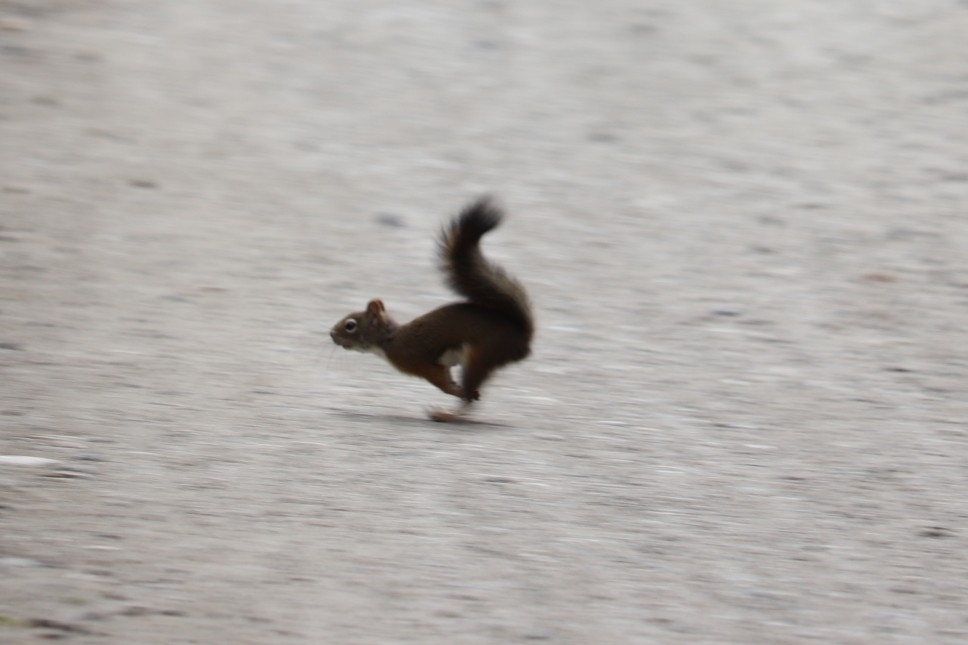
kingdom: Animalia
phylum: Chordata
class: Mammalia
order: Rodentia
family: Sciuridae
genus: Tamiasciurus
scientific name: Tamiasciurus hudsonicus
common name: Red squirrel
